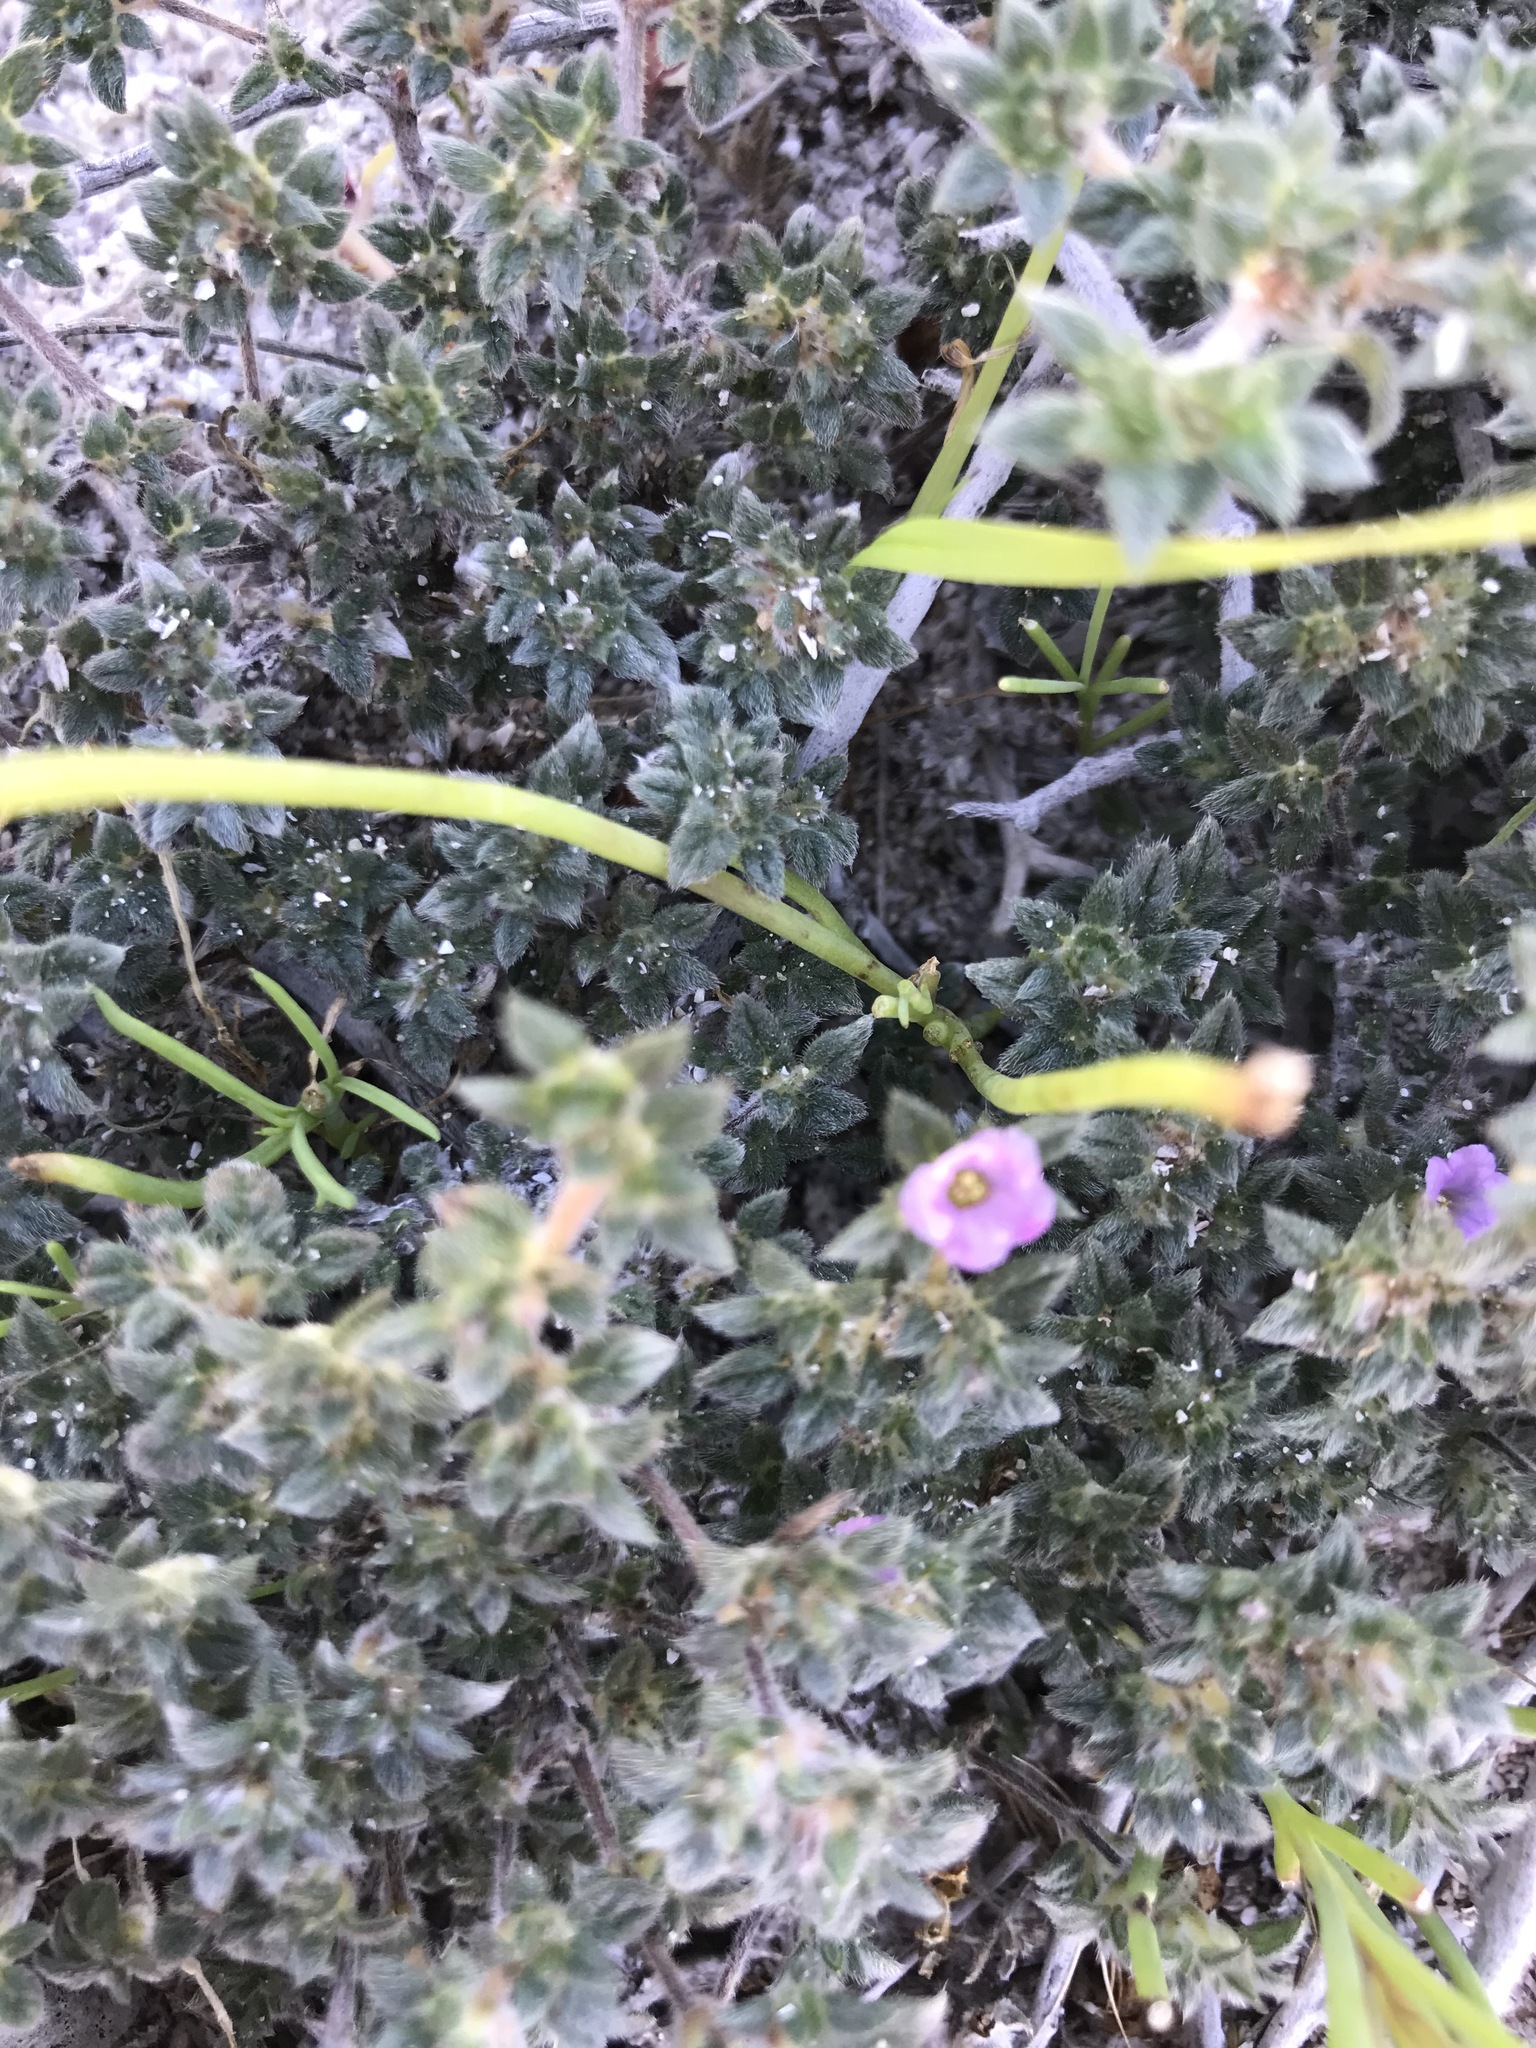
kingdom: Plantae
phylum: Tracheophyta
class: Magnoliopsida
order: Boraginales
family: Ehretiaceae
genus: Tiquilia
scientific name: Tiquilia cuspidata
